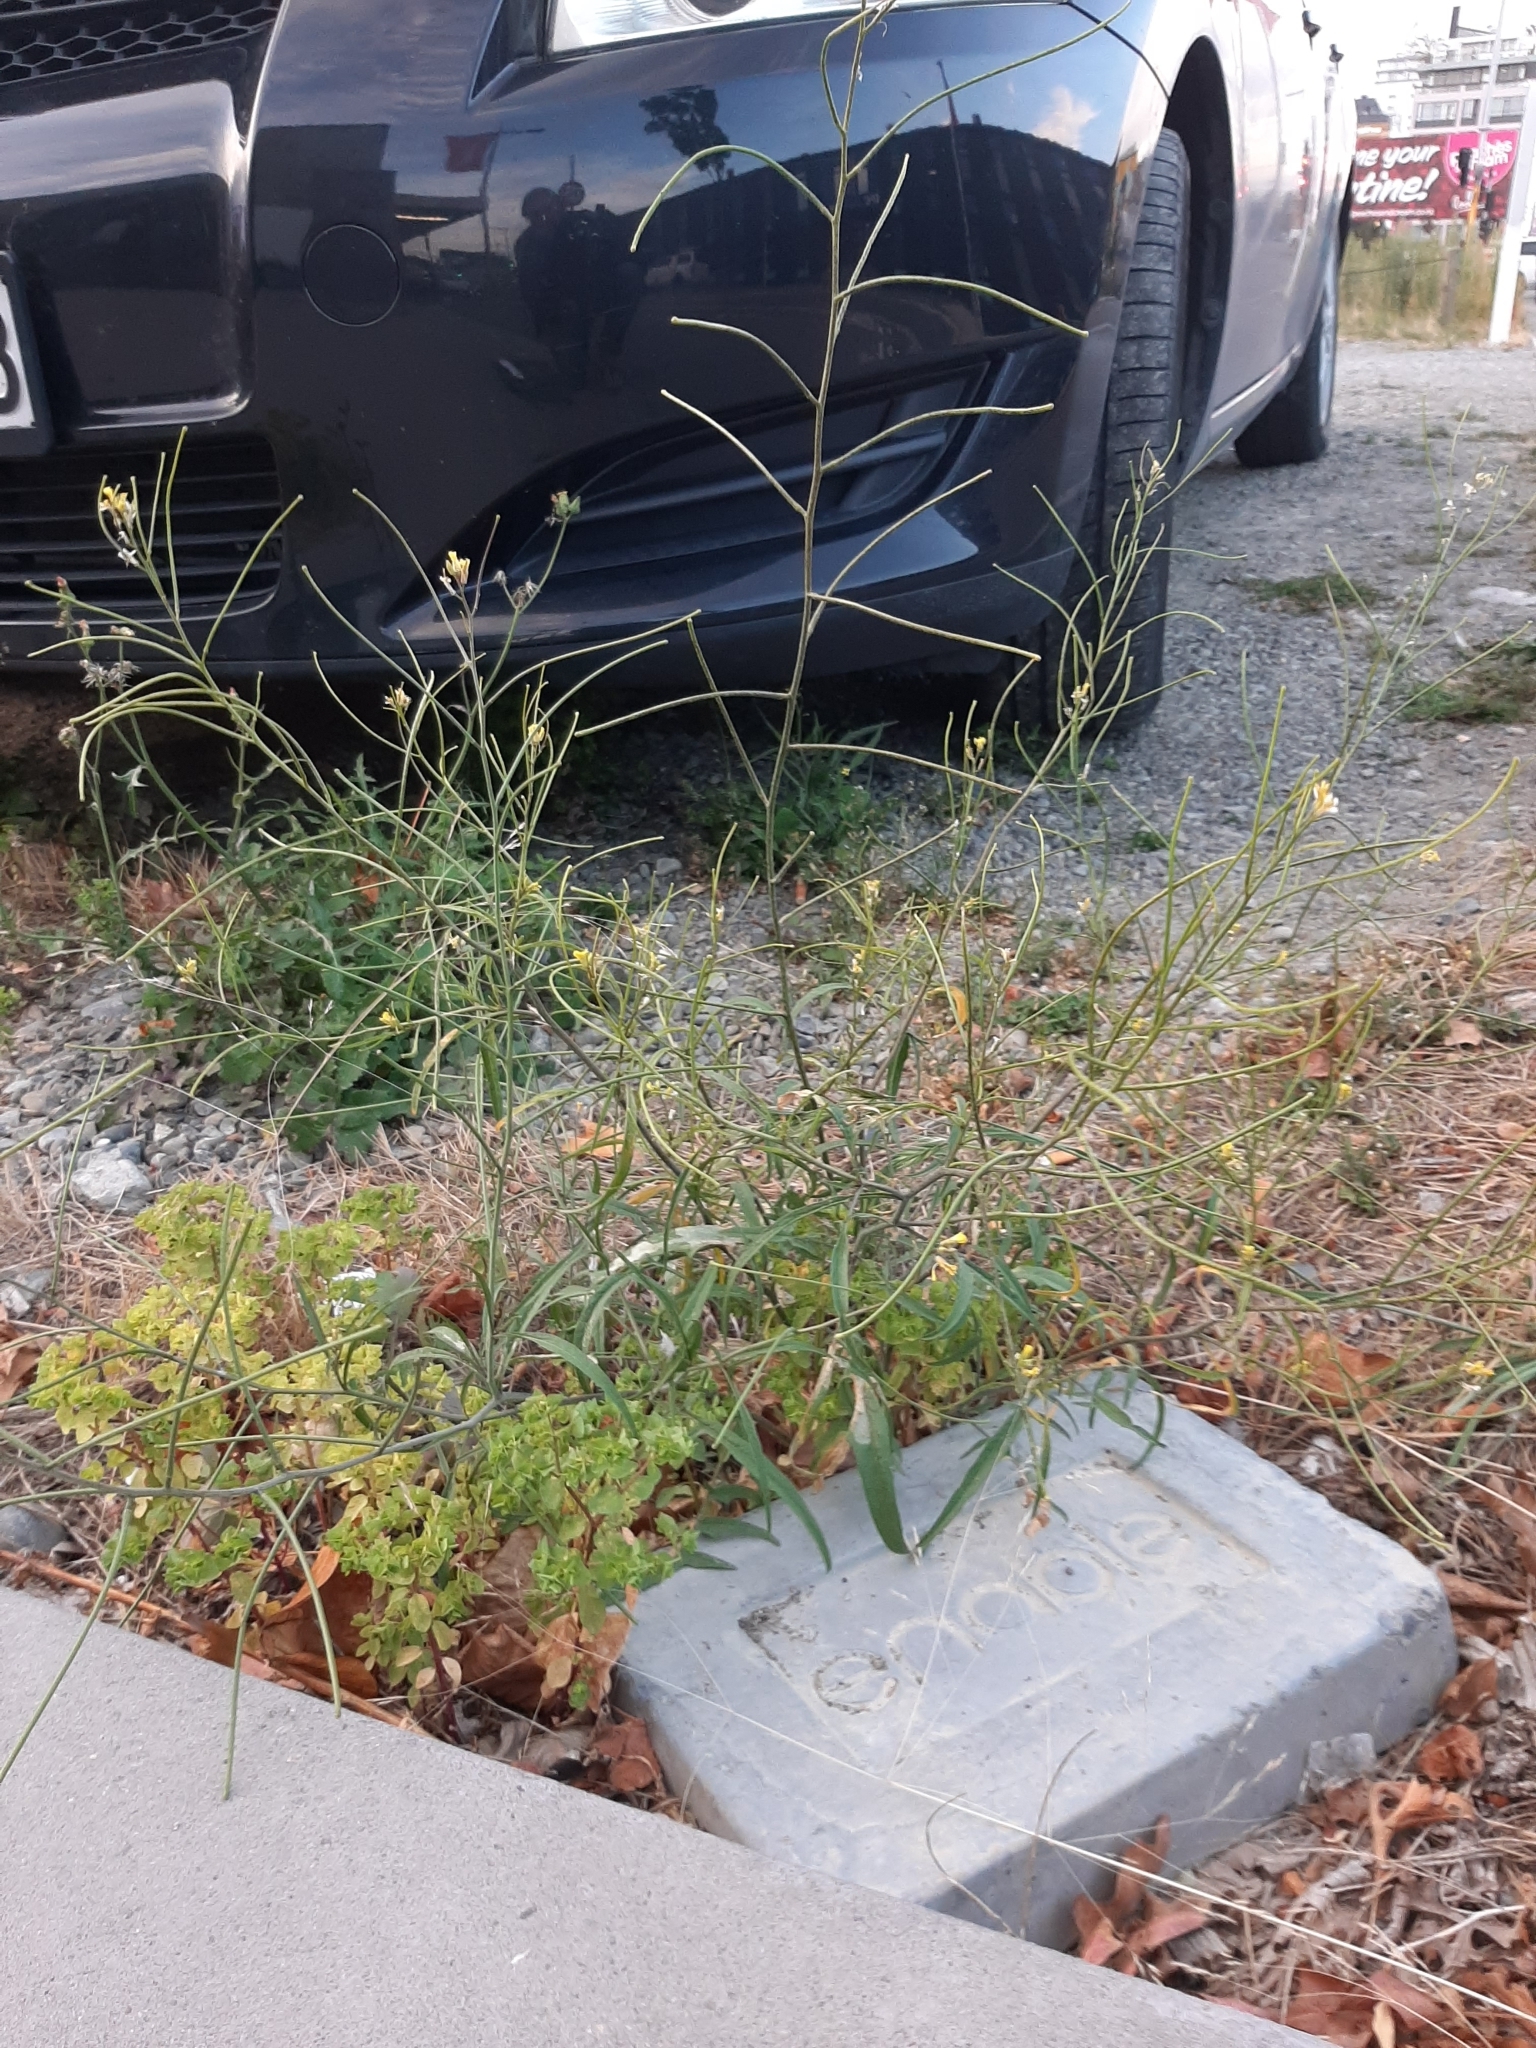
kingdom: Plantae
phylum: Tracheophyta
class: Magnoliopsida
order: Brassicales
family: Brassicaceae
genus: Sisymbrium
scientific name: Sisymbrium orientale
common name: Eastern rocket
